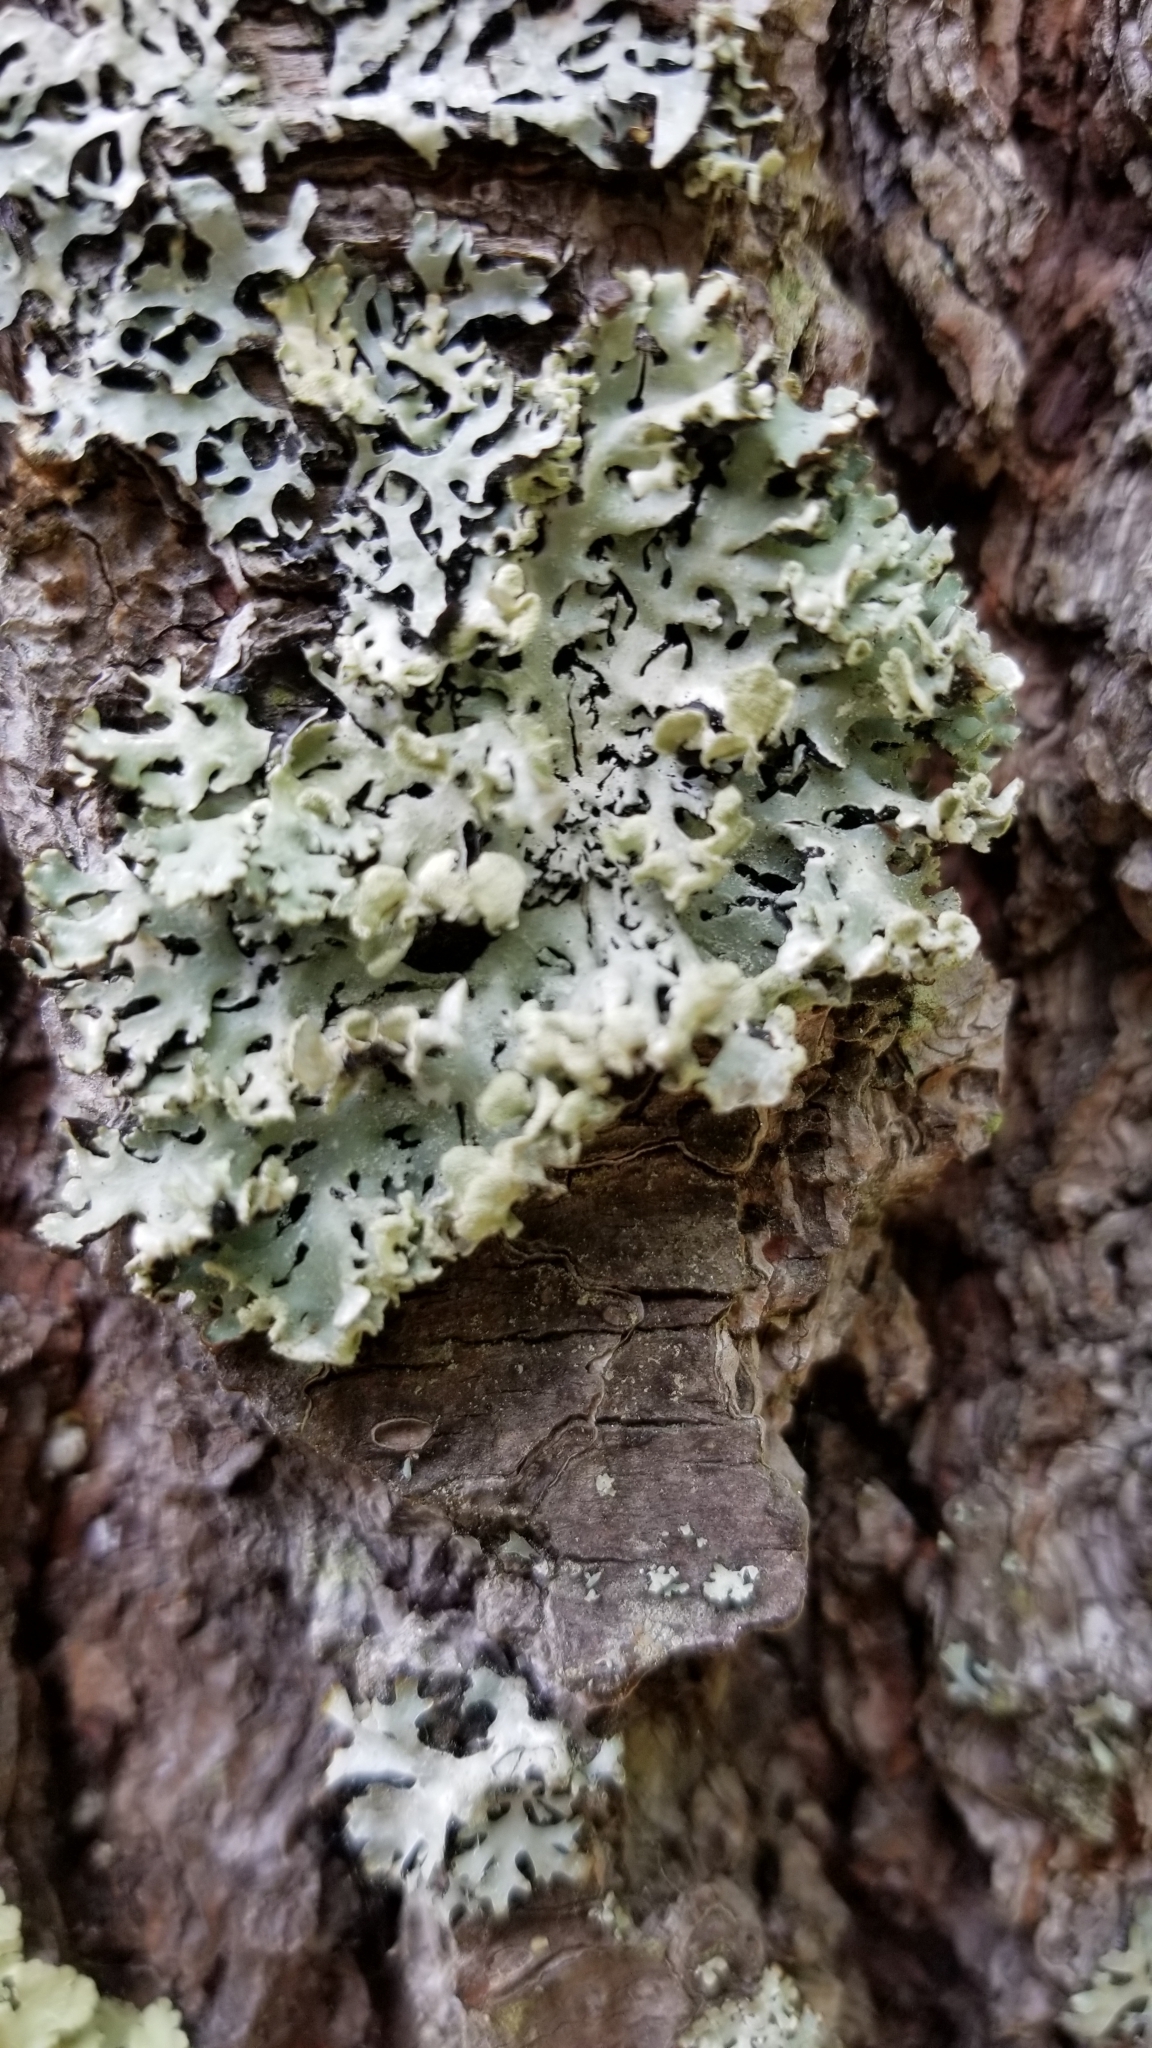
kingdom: Fungi
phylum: Ascomycota
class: Lecanoromycetes
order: Lecanorales
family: Parmeliaceae
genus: Hypogymnia
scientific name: Hypogymnia physodes
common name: Dark crottle
